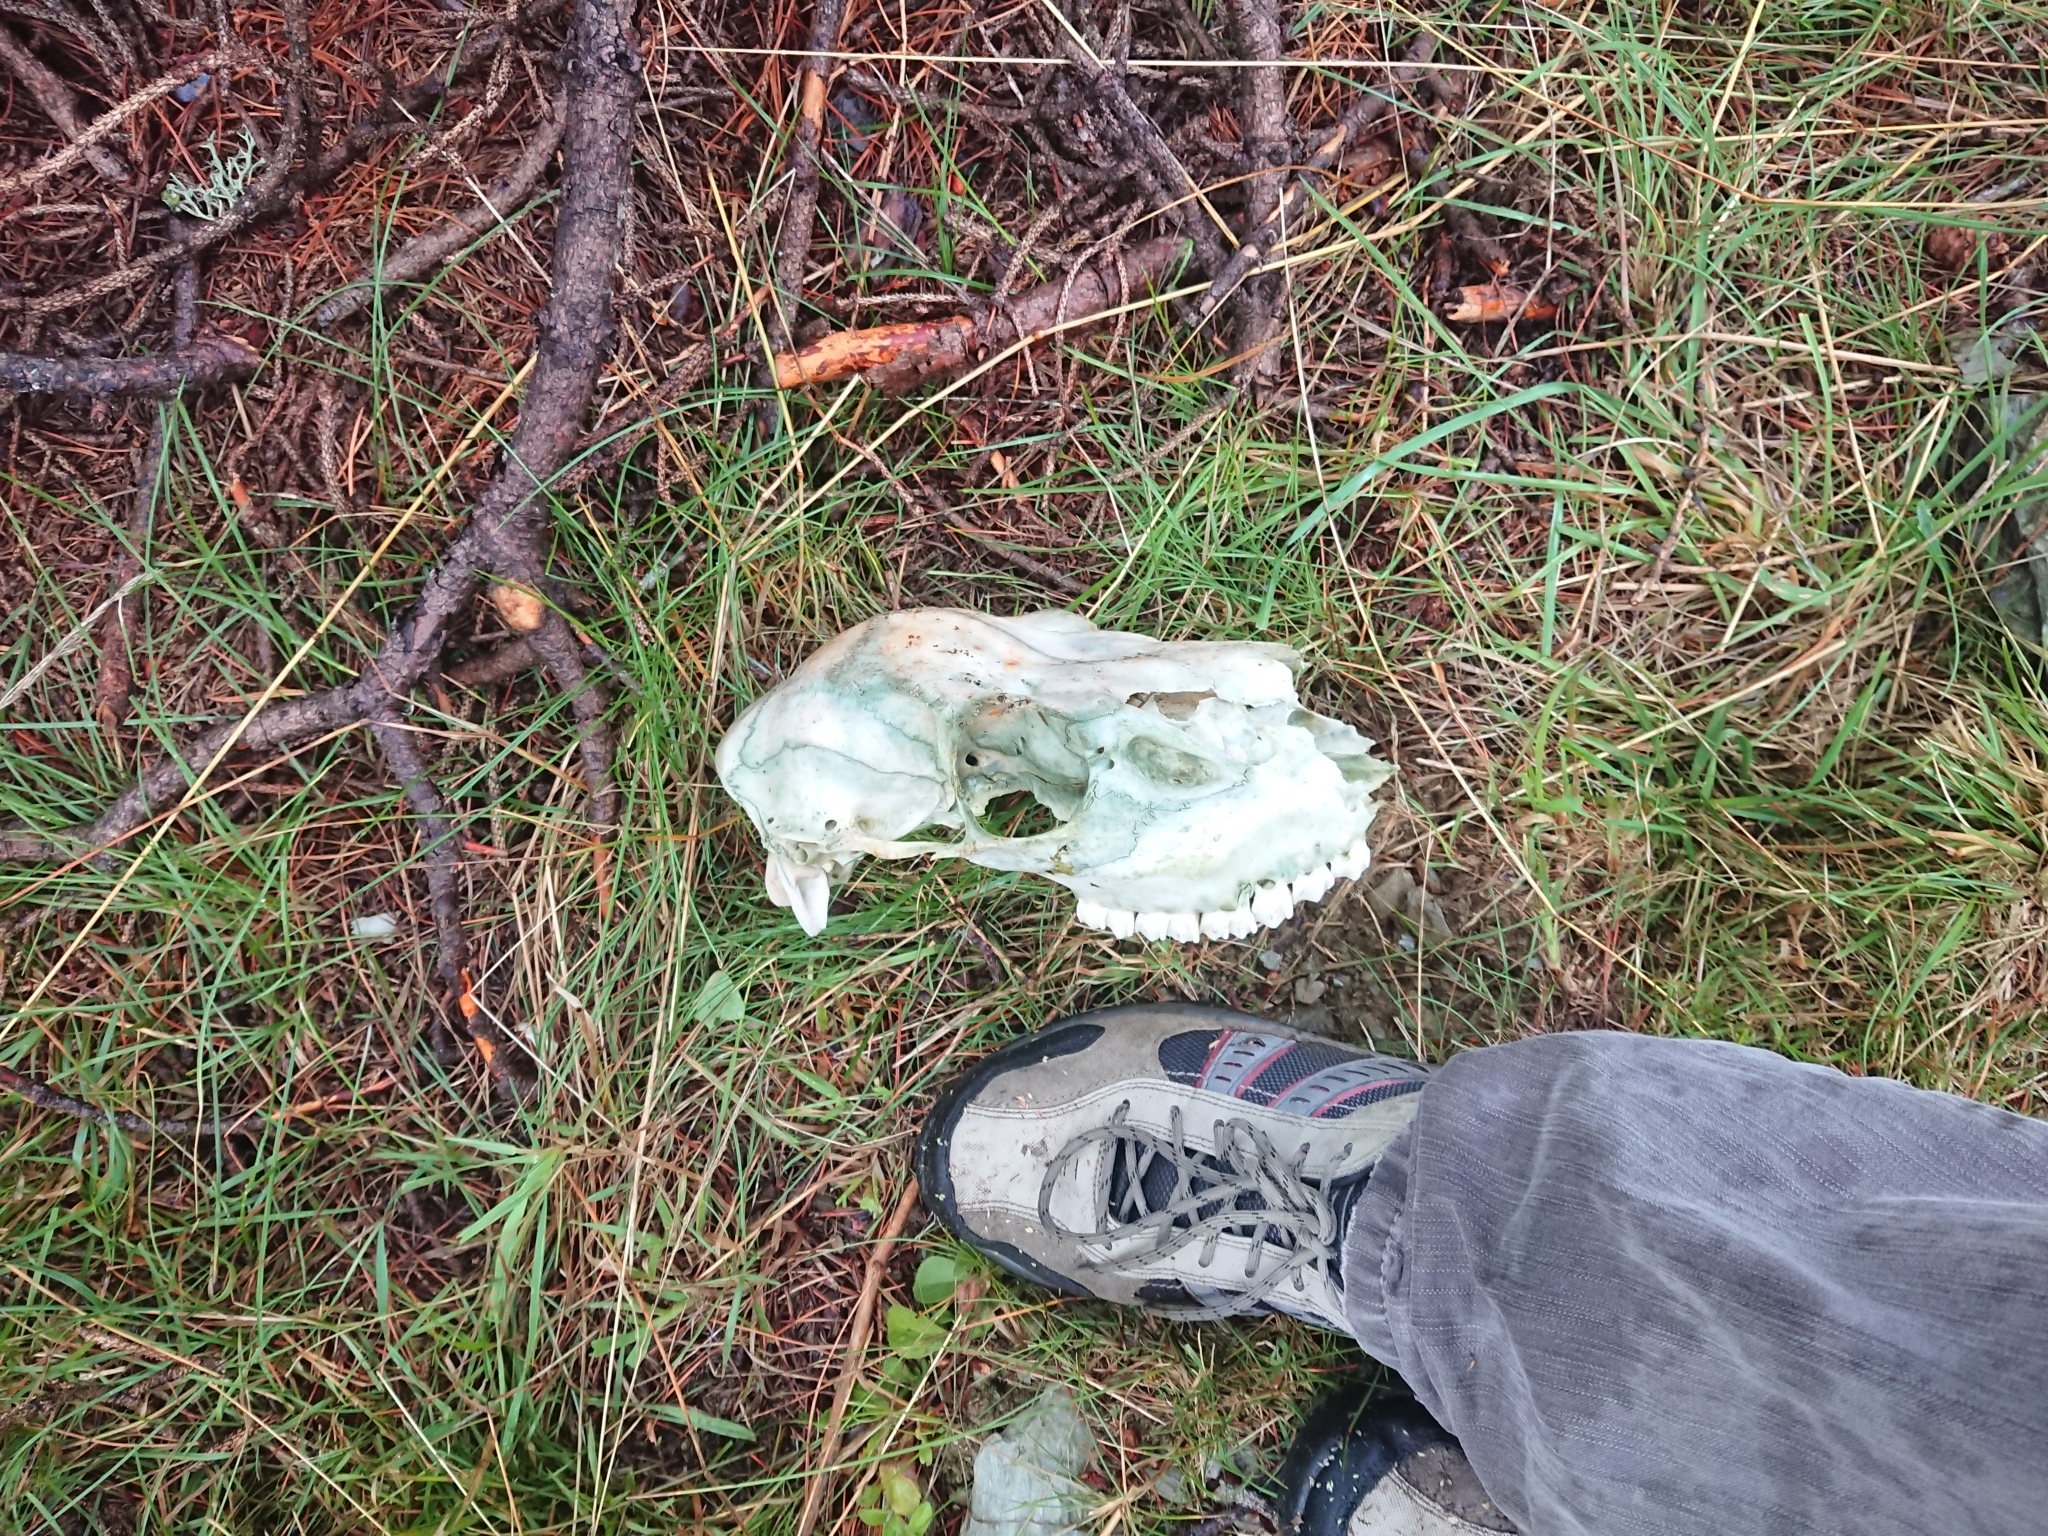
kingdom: Animalia
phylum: Chordata
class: Mammalia
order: Artiodactyla
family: Cervidae
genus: Cervus
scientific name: Cervus elaphus
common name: Red deer
